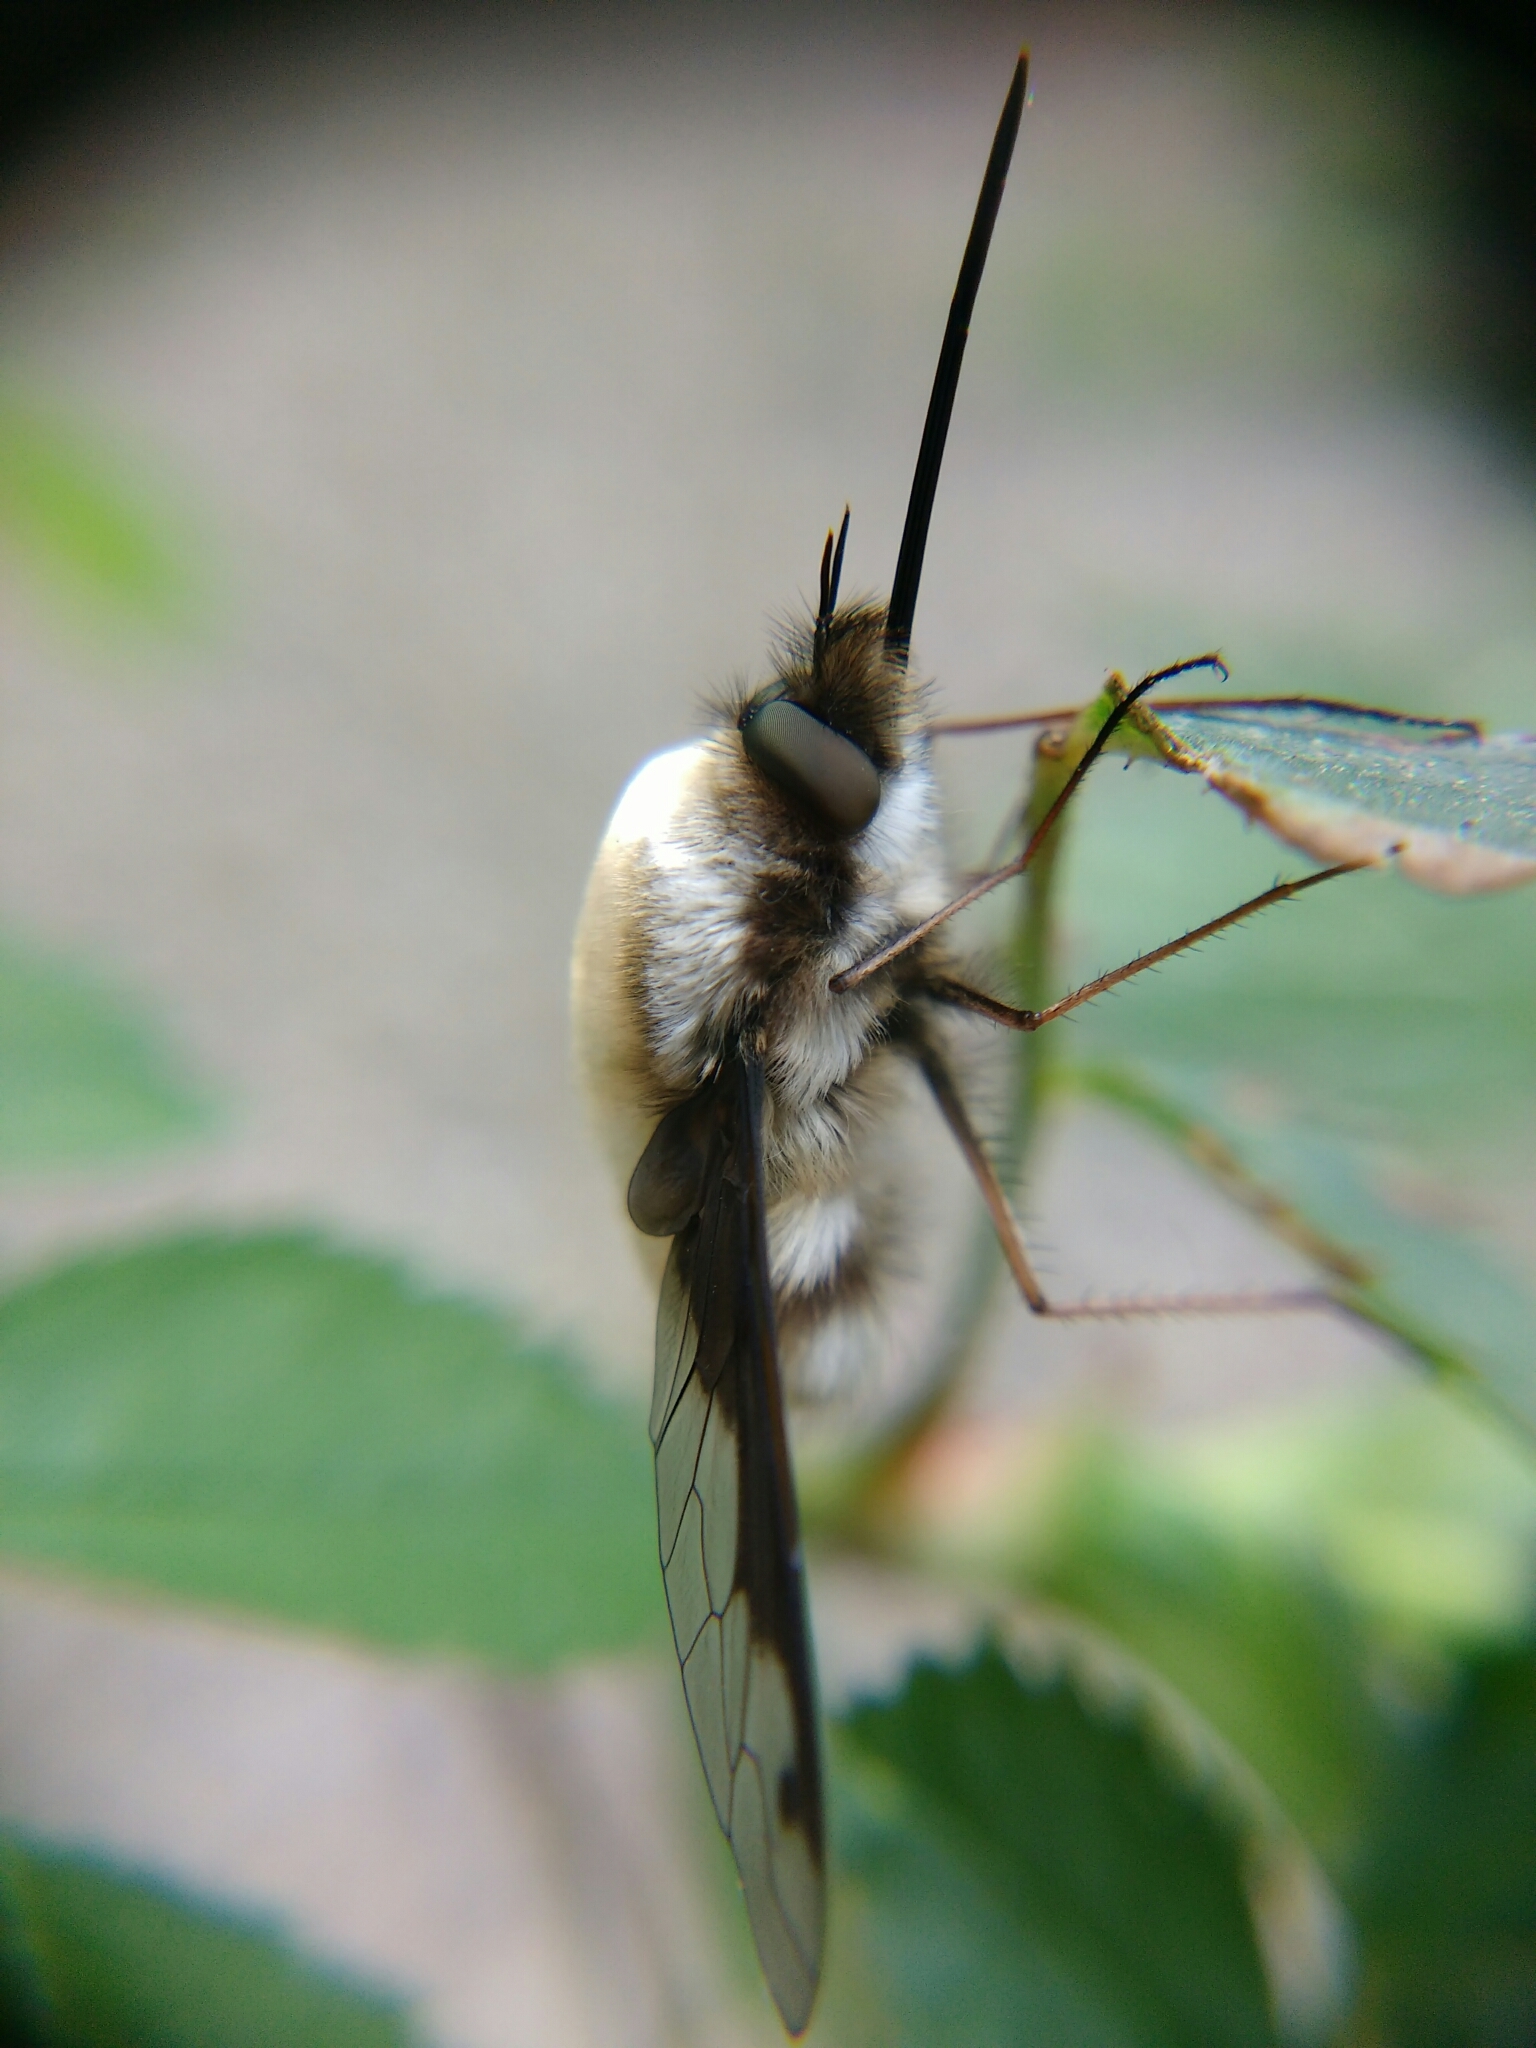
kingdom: Animalia
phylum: Arthropoda
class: Insecta
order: Diptera
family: Bombyliidae
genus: Bombylius
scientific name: Bombylius major
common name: Bee fly
